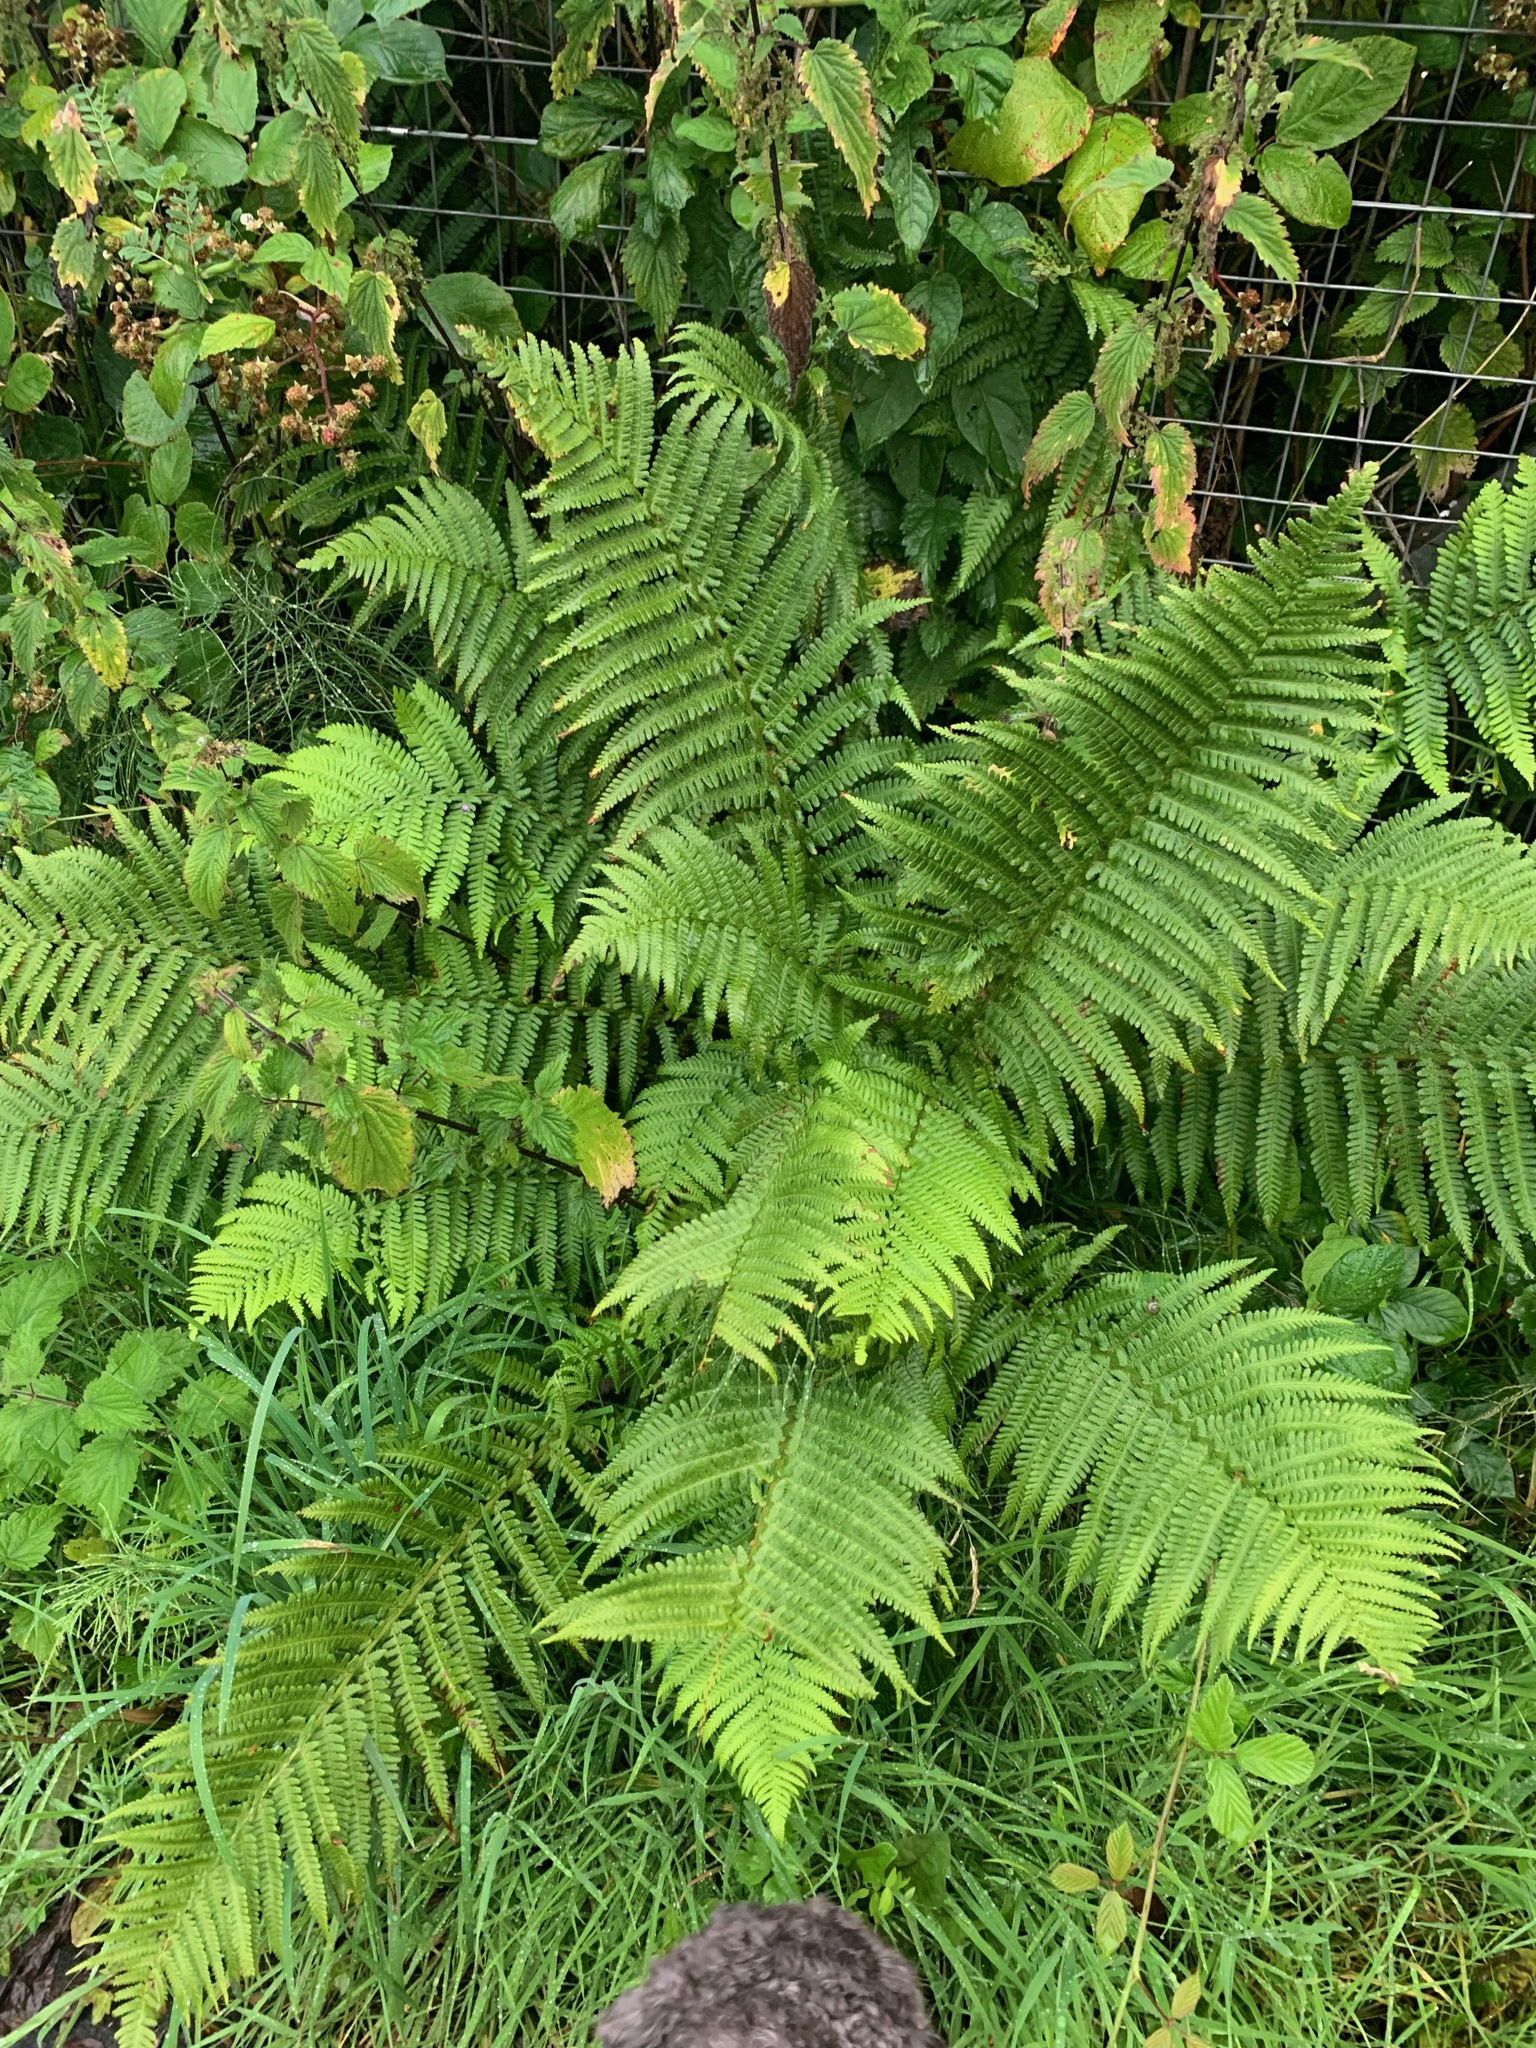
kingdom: Plantae
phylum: Tracheophyta
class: Polypodiopsida
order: Polypodiales
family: Dryopteridaceae
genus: Dryopteris
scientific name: Dryopteris filix-mas
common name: Male fern
